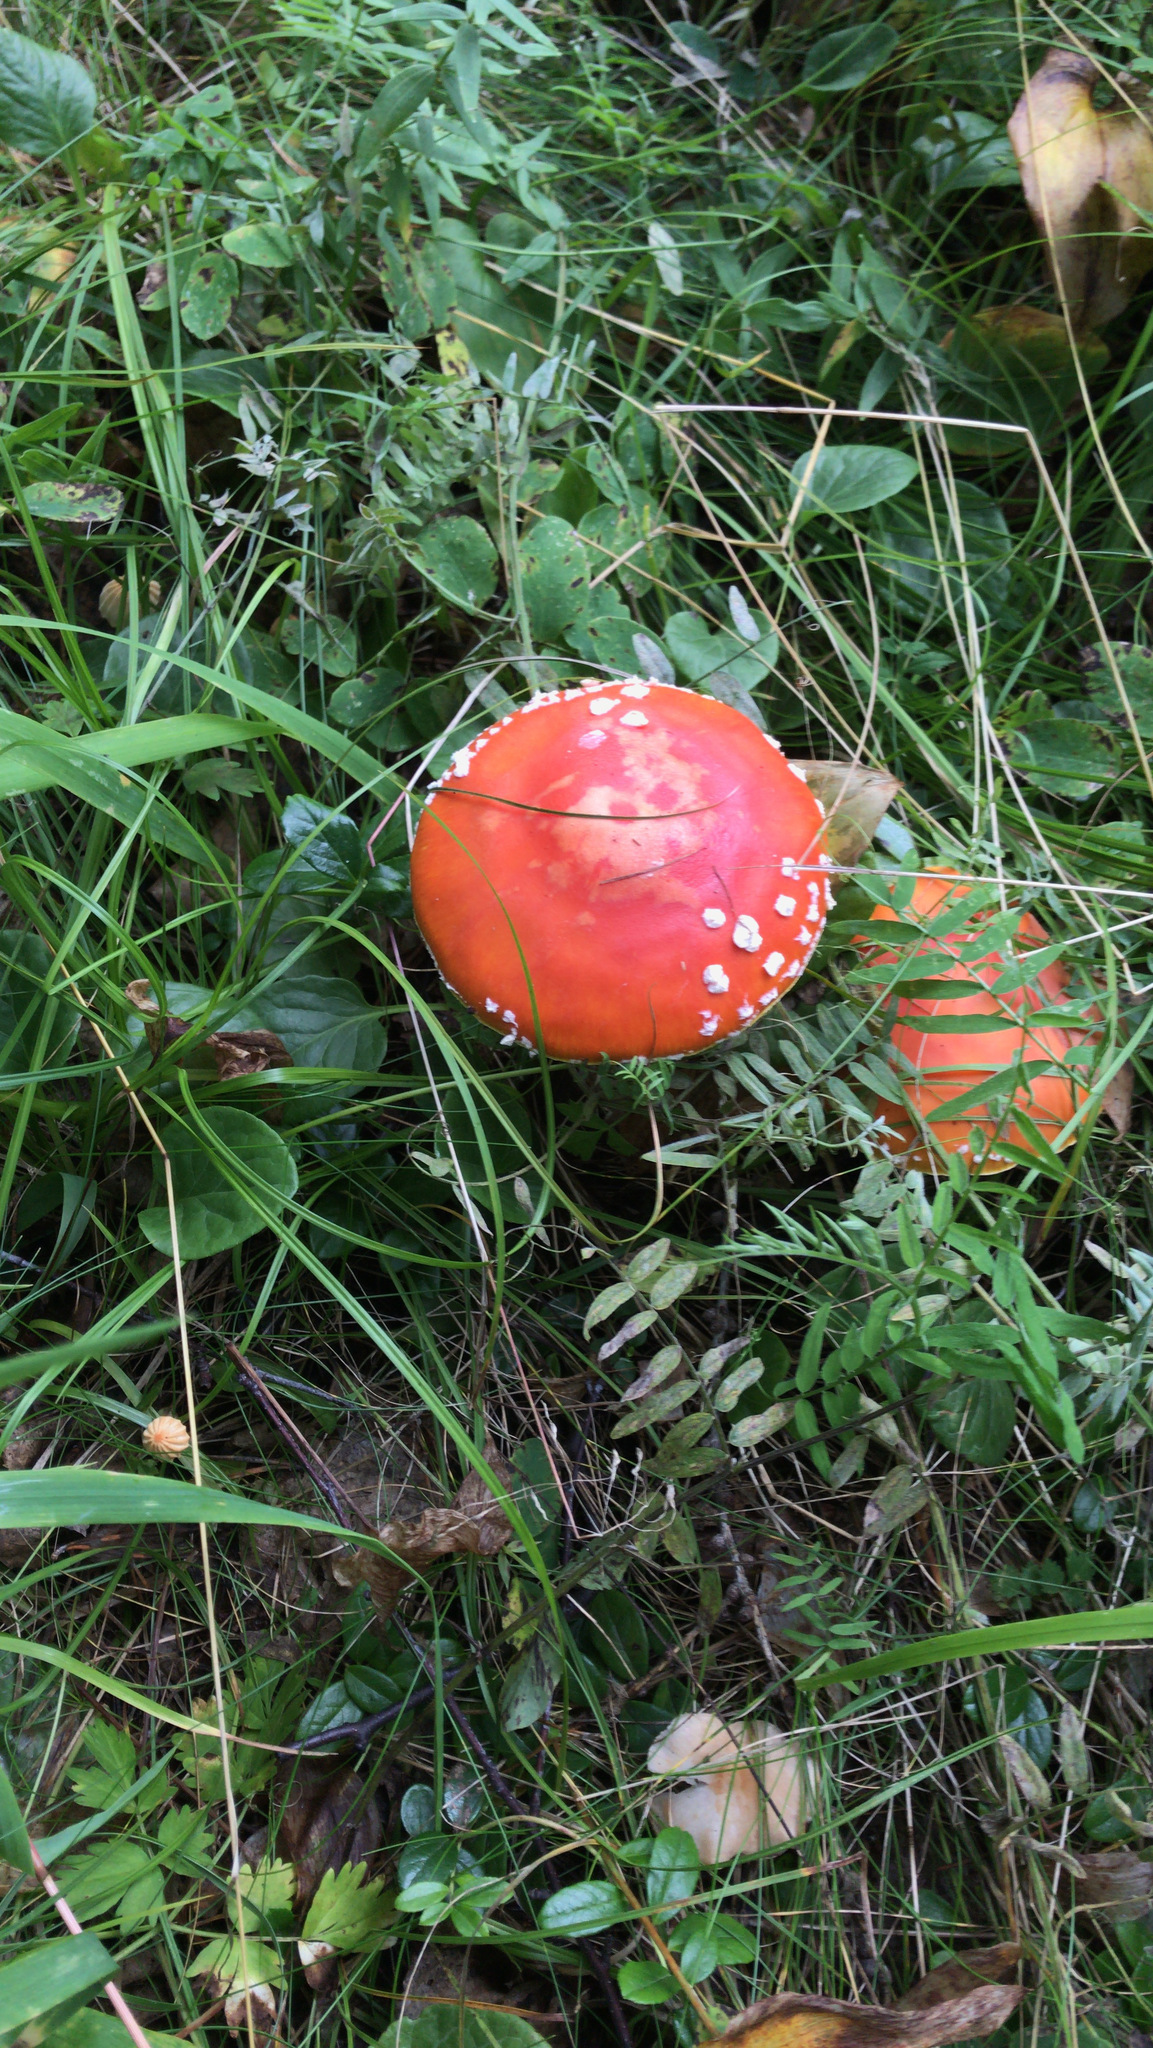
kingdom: Fungi
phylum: Basidiomycota
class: Agaricomycetes
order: Agaricales
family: Amanitaceae
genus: Amanita
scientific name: Amanita muscaria
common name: Fly agaric
